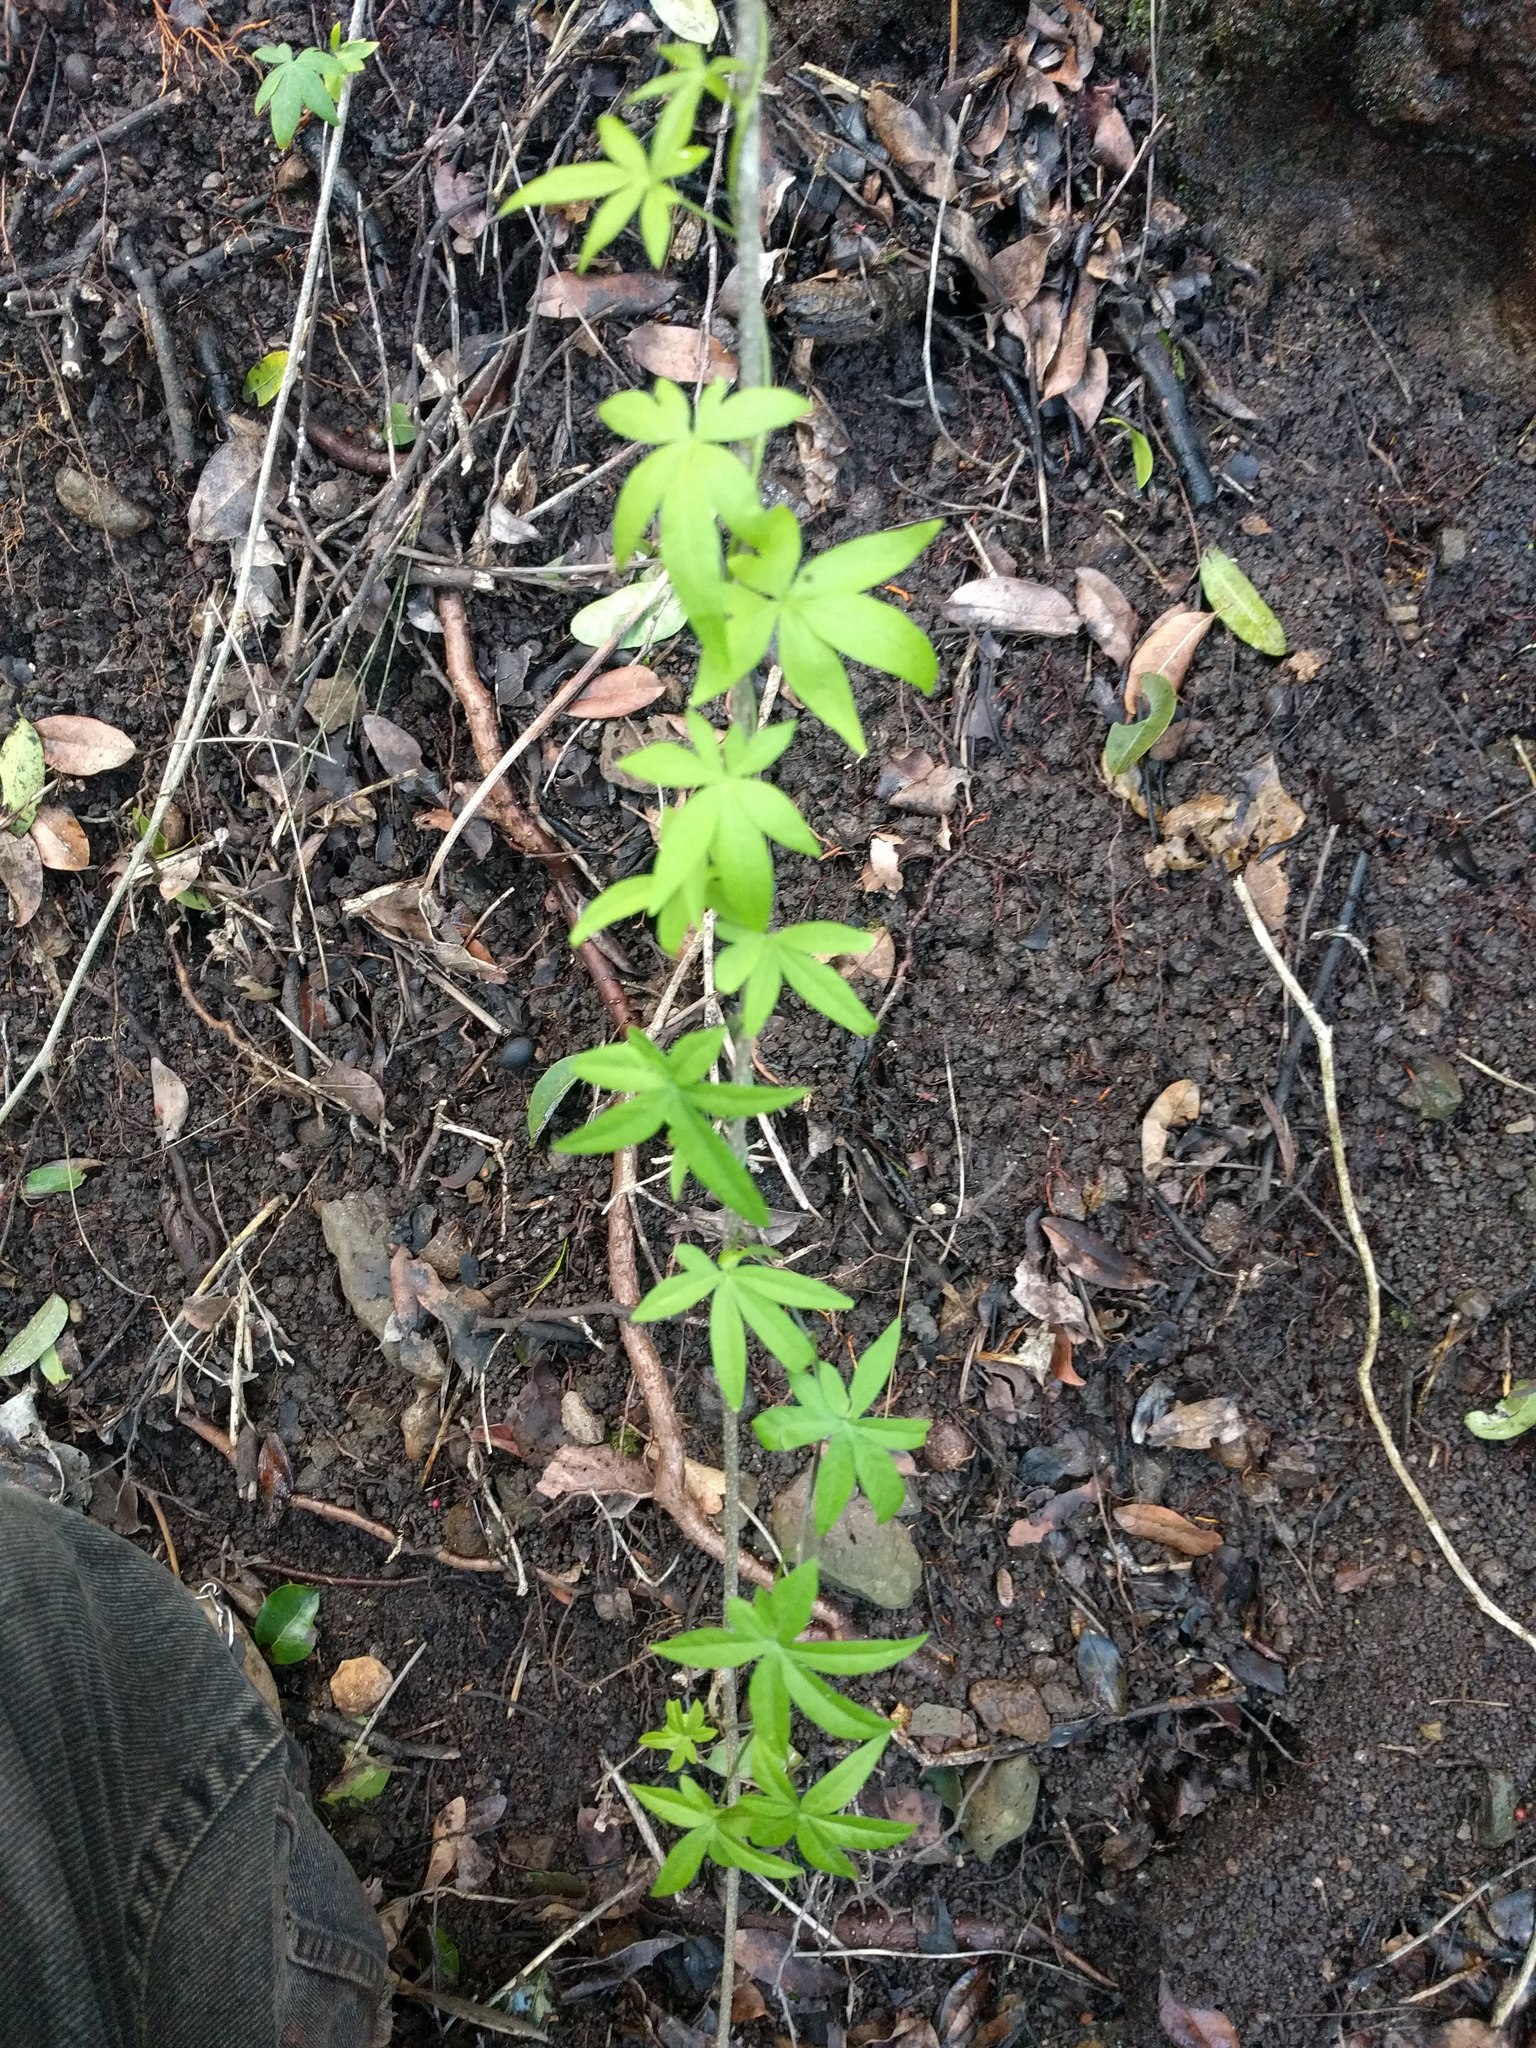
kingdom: Plantae
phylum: Tracheophyta
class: Magnoliopsida
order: Solanales
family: Convolvulaceae
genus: Ipomoea
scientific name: Ipomoea cairica
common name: Mile a minute vine
